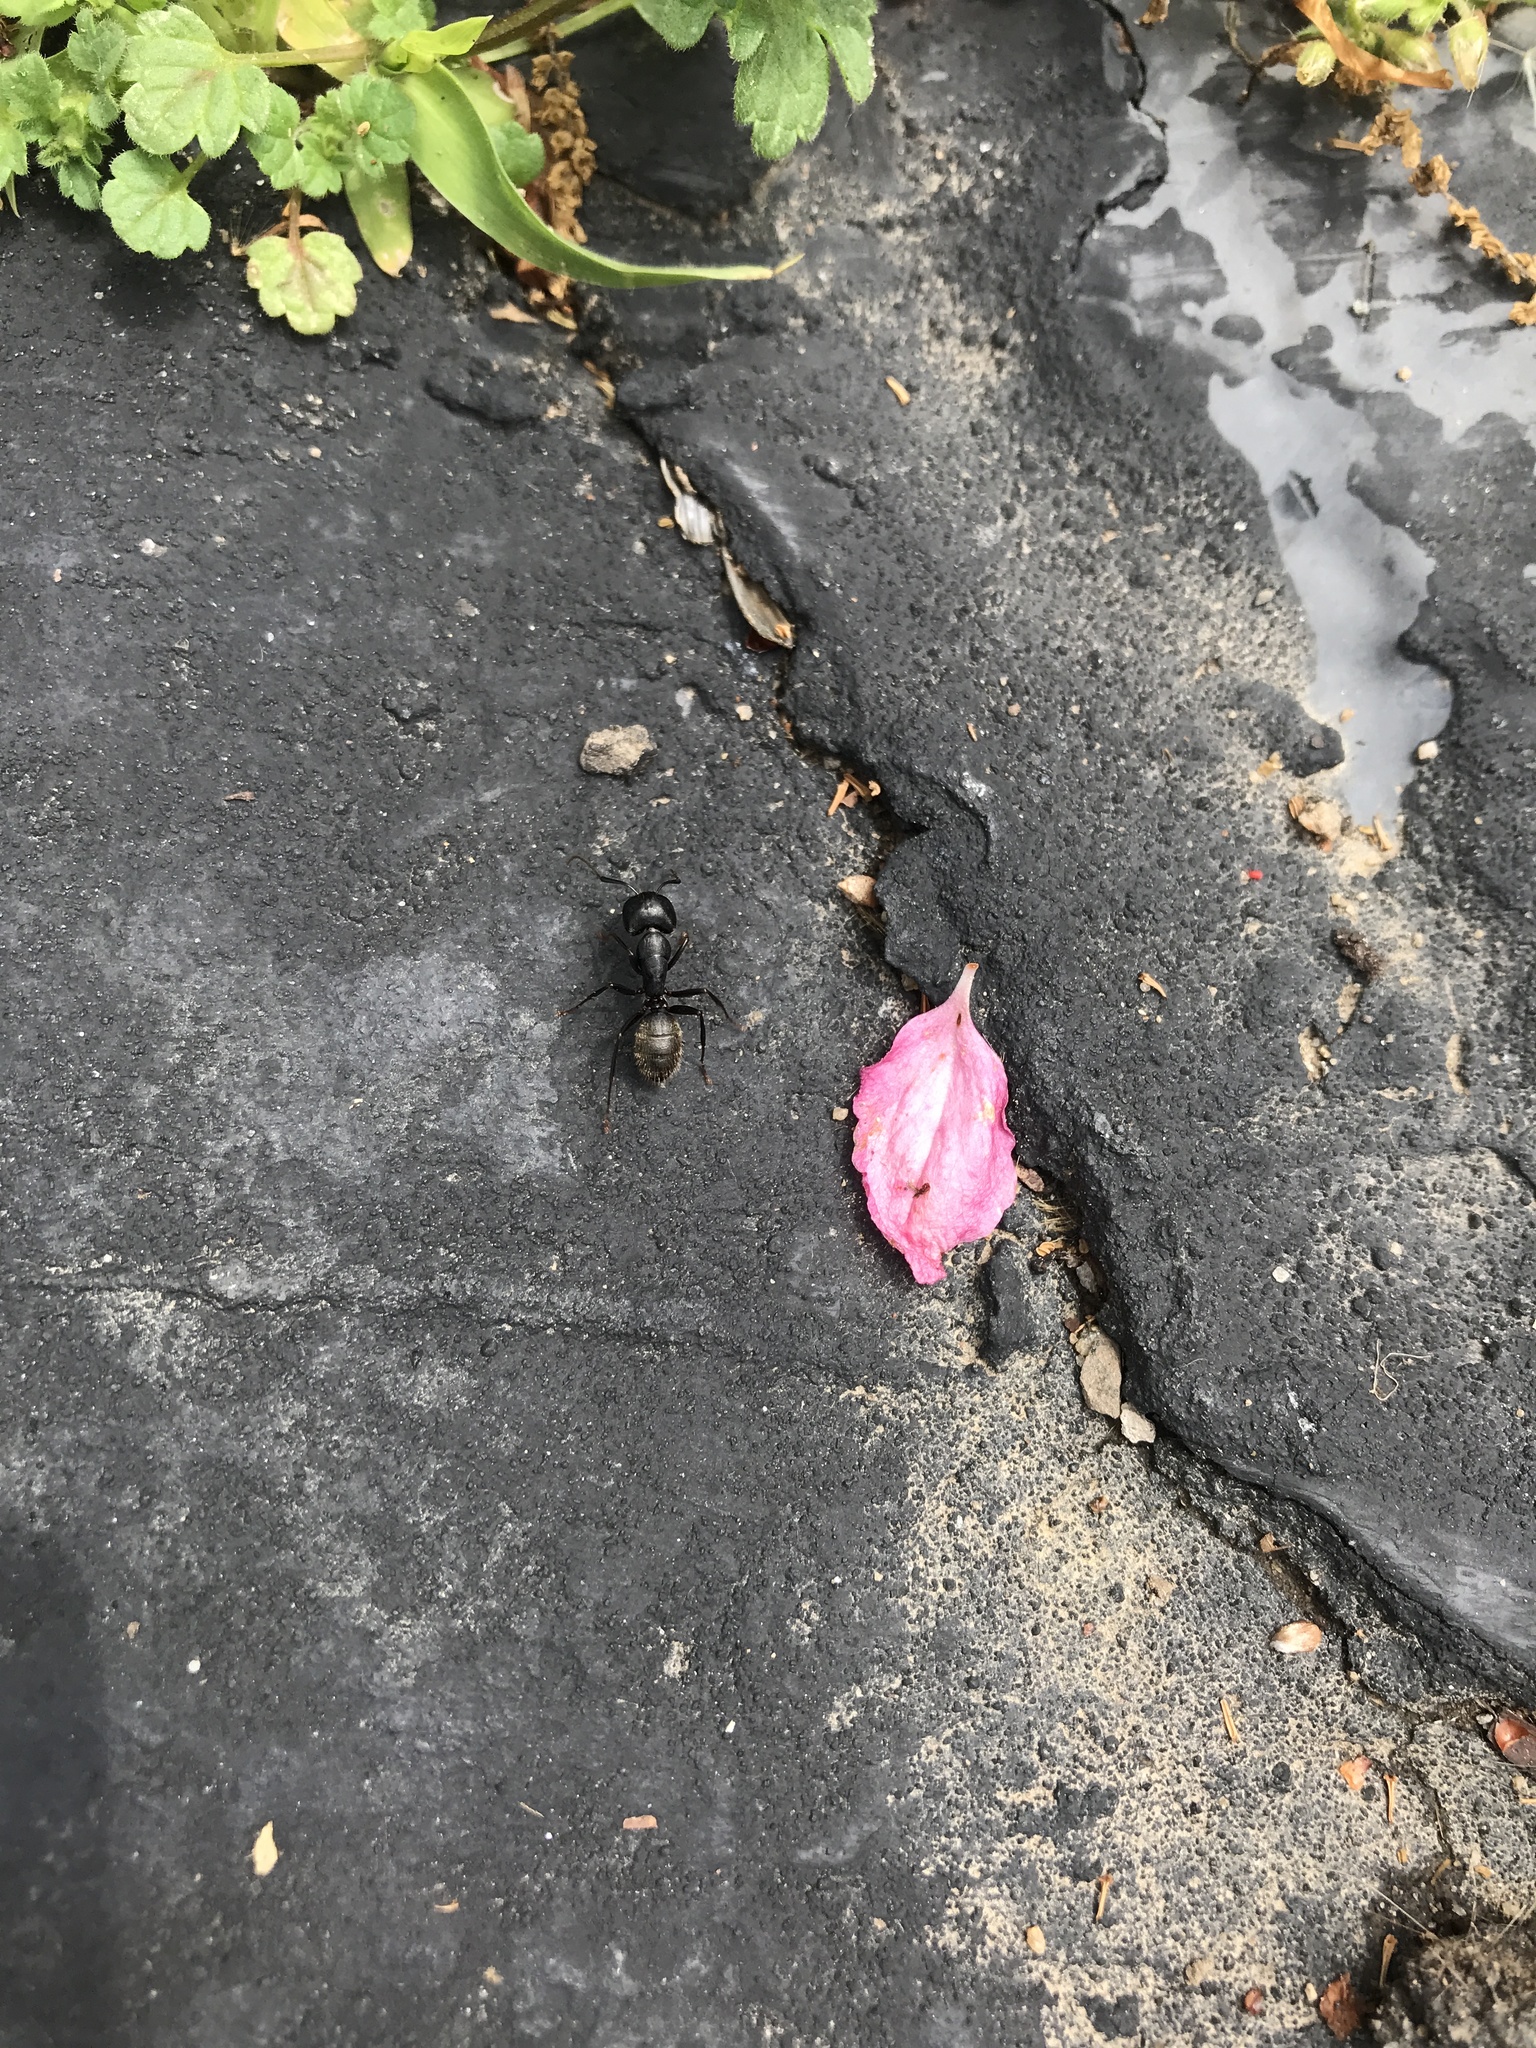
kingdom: Animalia
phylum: Arthropoda
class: Insecta
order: Hymenoptera
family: Formicidae
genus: Camponotus
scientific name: Camponotus pennsylvanicus
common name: Black carpenter ant
